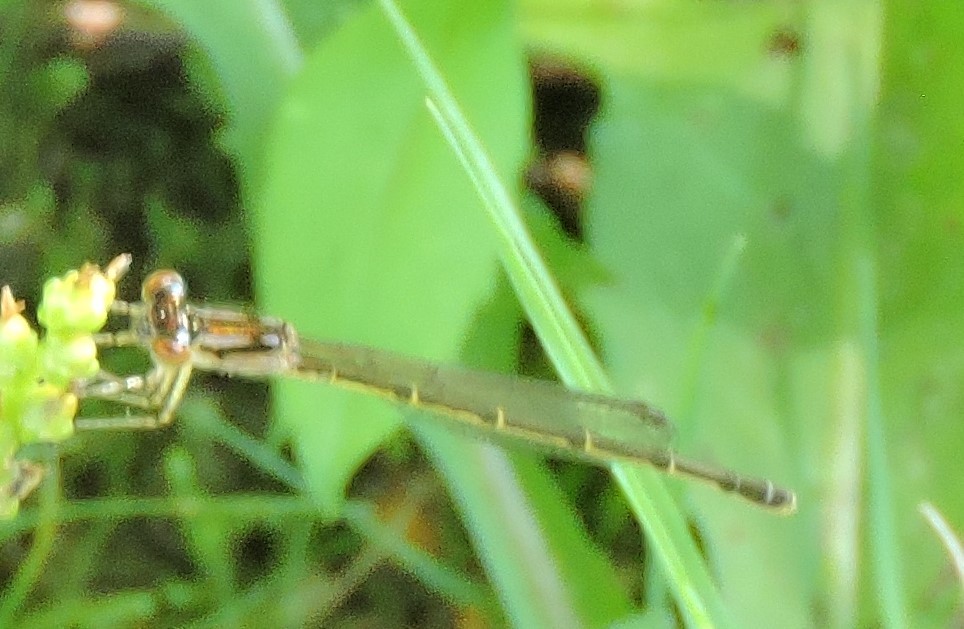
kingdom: Animalia
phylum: Arthropoda
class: Insecta
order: Odonata
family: Coenagrionidae
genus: Ischnura
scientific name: Ischnura posita
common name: Fragile forktail
